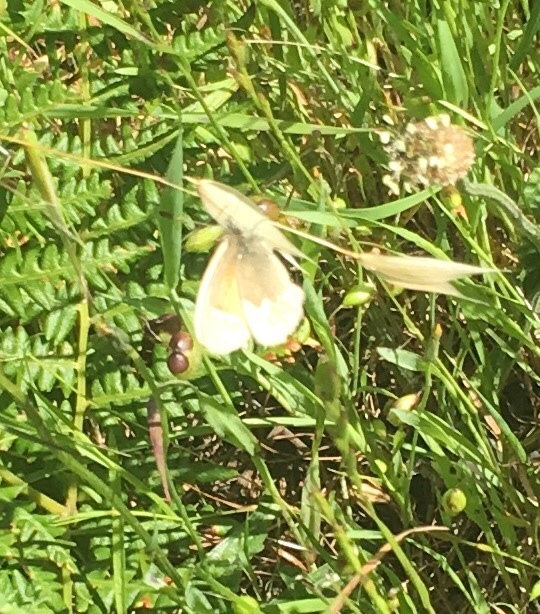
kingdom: Animalia
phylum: Arthropoda
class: Insecta
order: Lepidoptera
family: Nymphalidae
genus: Coenonympha
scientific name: Coenonympha california
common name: Common ringlet
